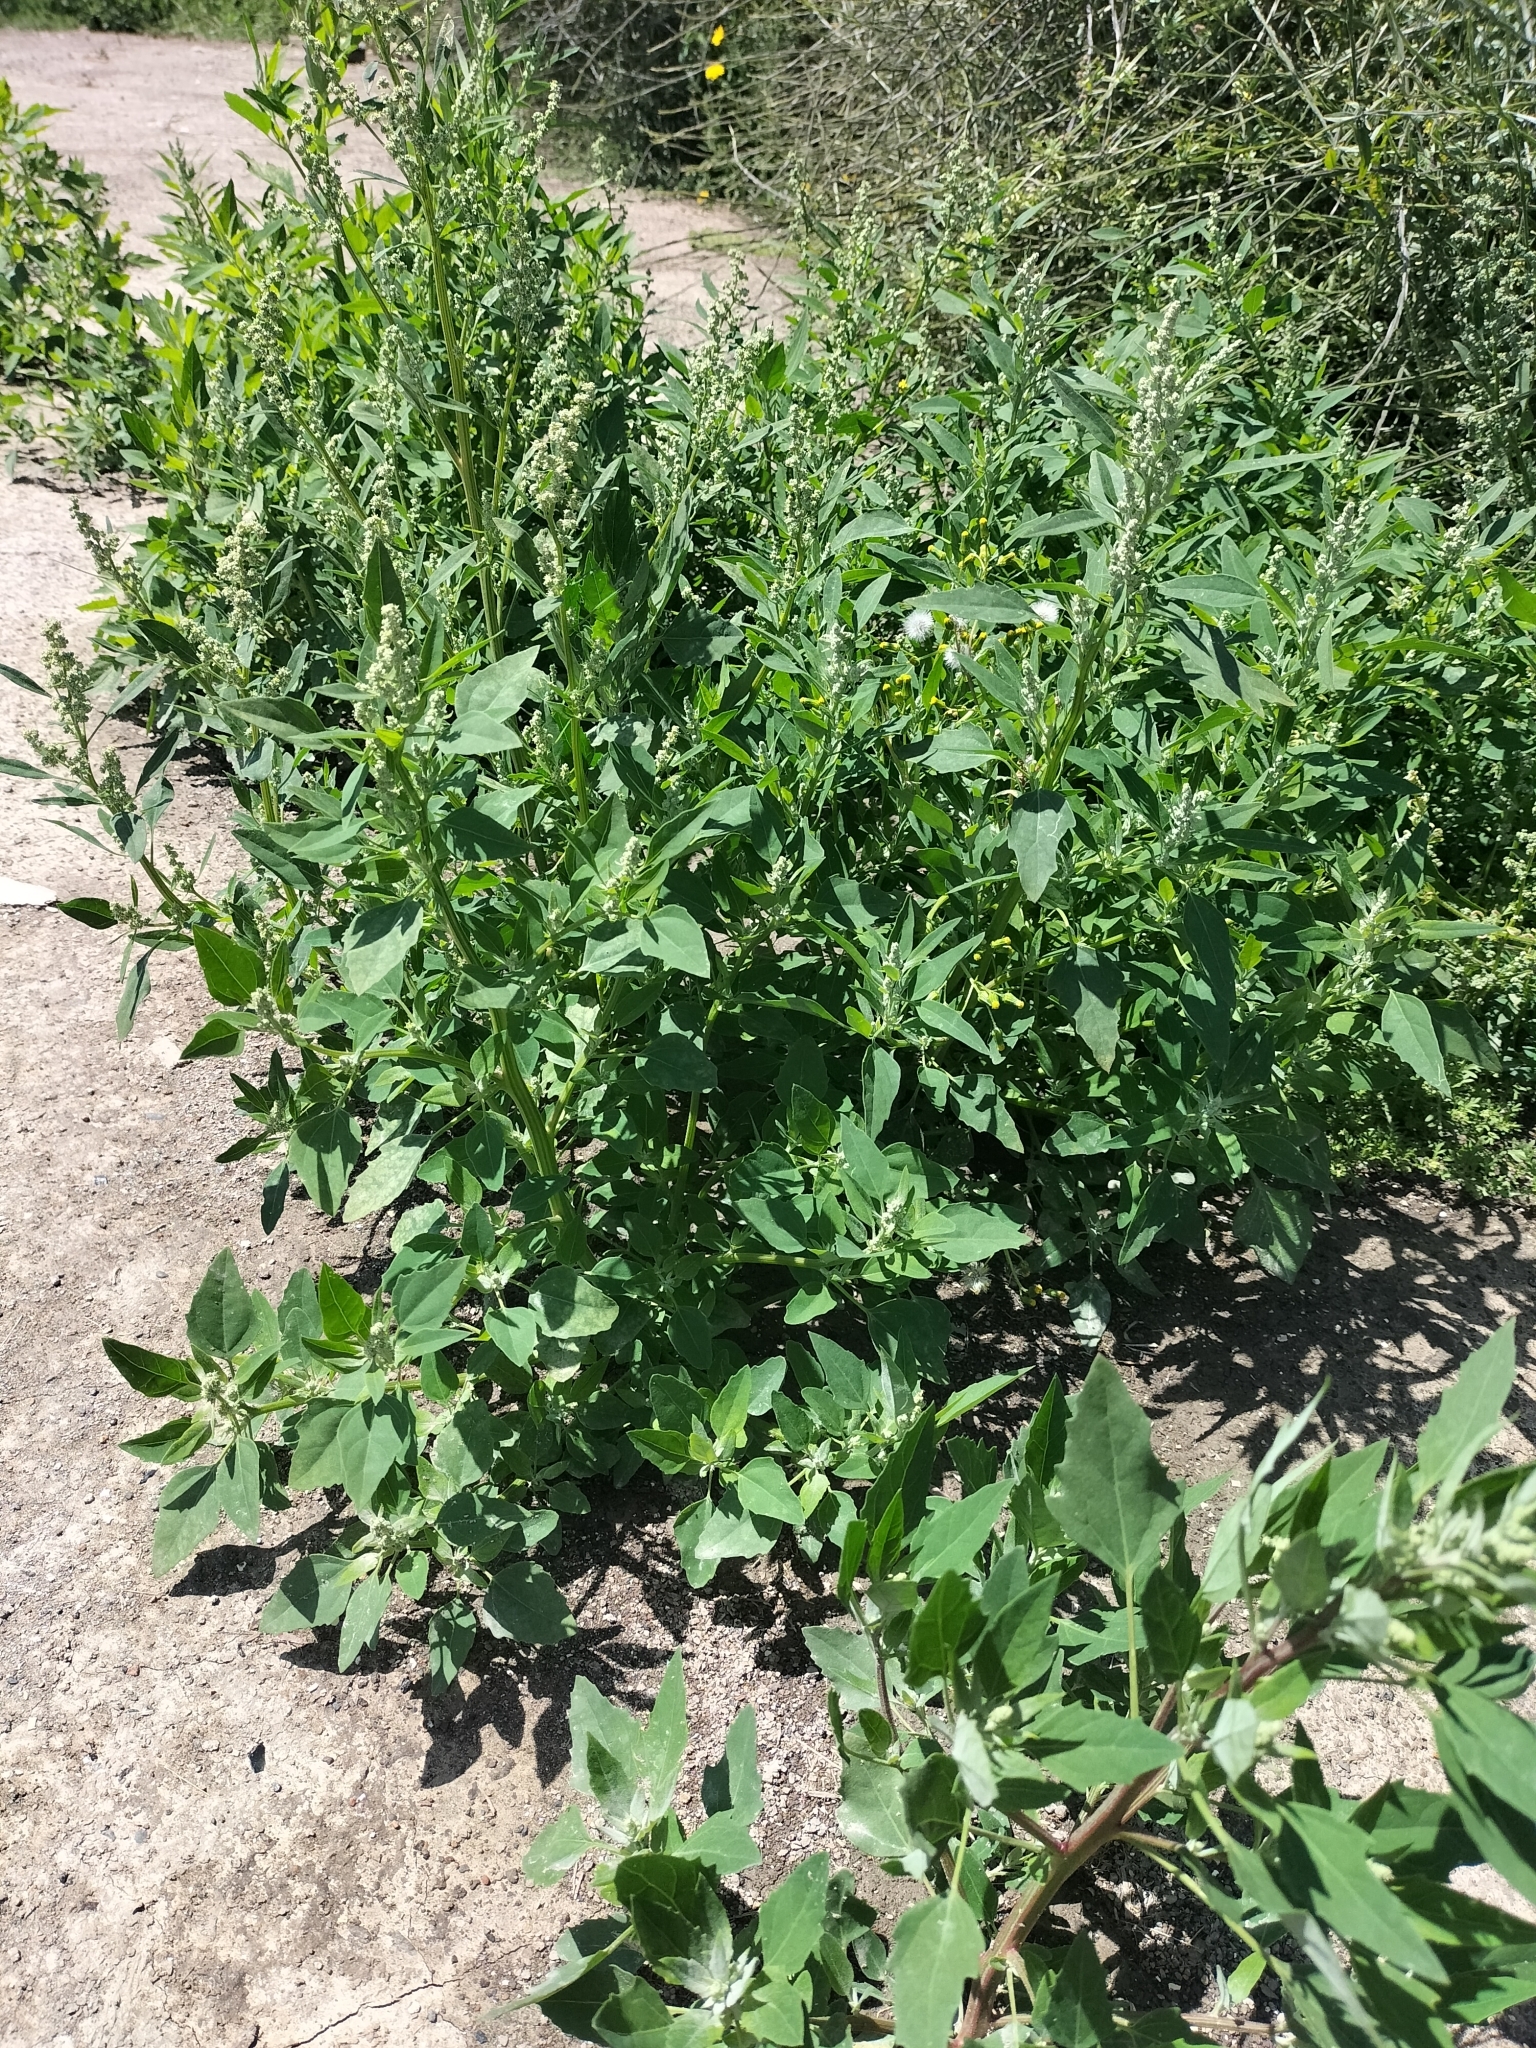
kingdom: Plantae
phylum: Tracheophyta
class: Magnoliopsida
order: Caryophyllales
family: Amaranthaceae
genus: Chenopodium
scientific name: Chenopodium album
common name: Fat-hen
